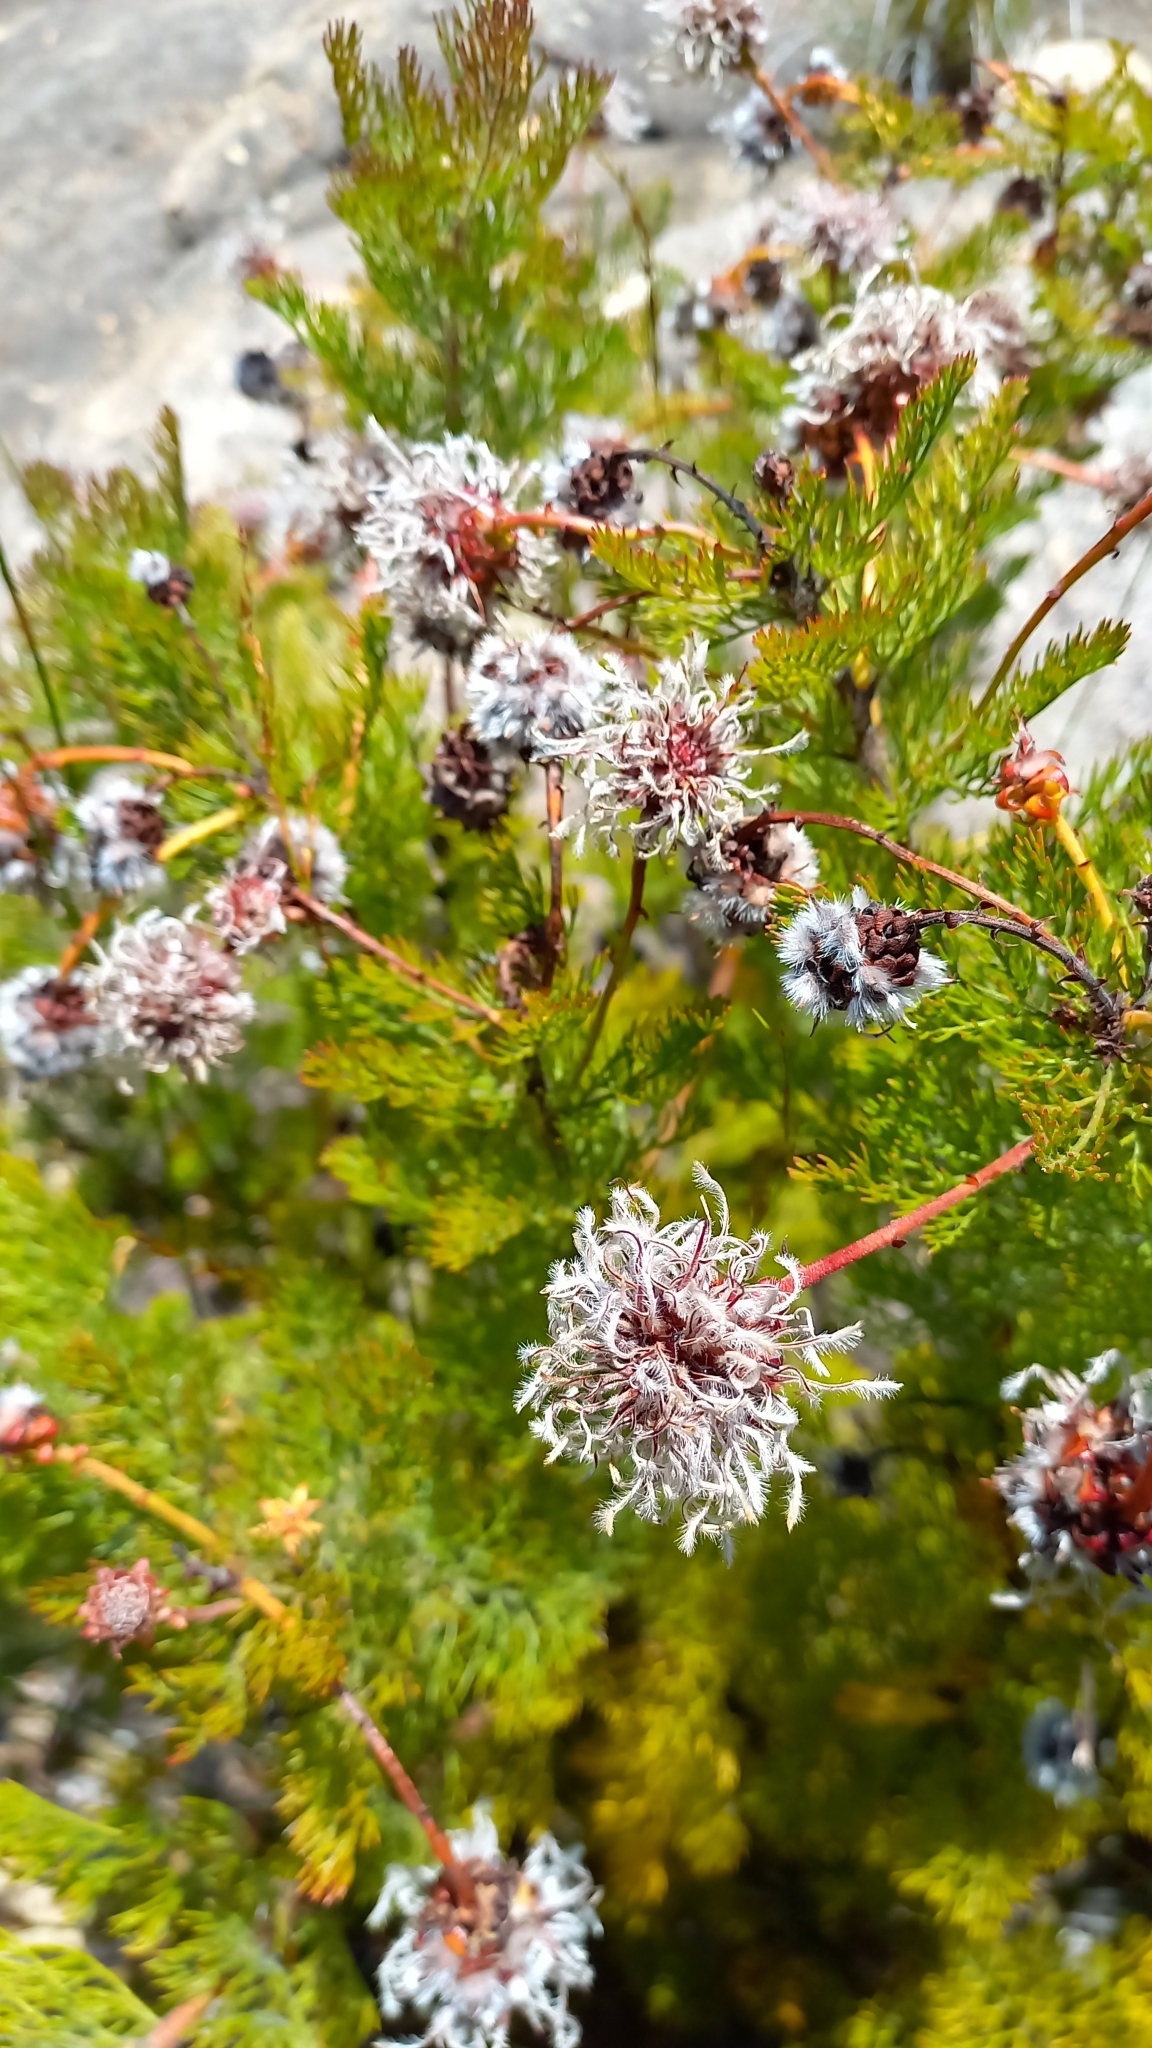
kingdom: Plantae
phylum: Tracheophyta
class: Magnoliopsida
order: Proteales
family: Proteaceae
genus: Serruria
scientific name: Serruria pedunculata
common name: Fan-leaf spiderhead
